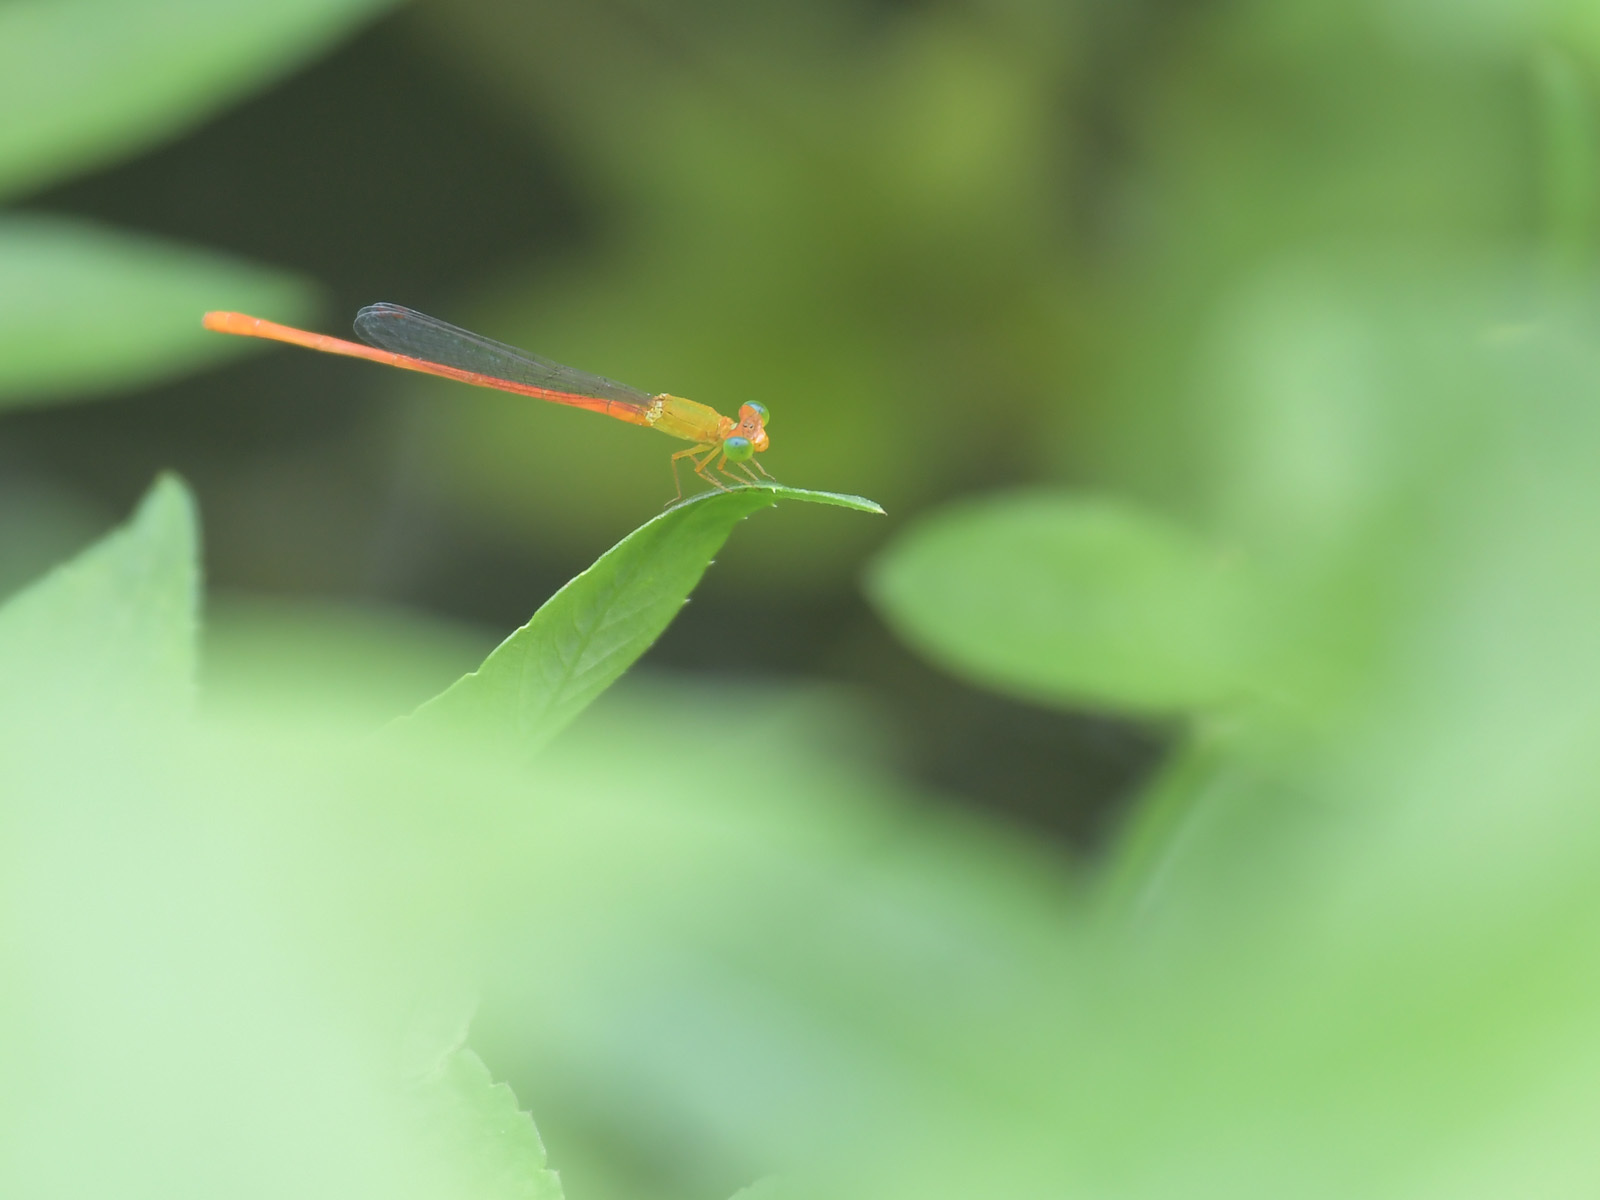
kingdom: Animalia
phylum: Arthropoda
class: Insecta
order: Odonata
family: Coenagrionidae
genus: Ceriagrion
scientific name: Ceriagrion auranticum
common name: Orange-tailed sprite
